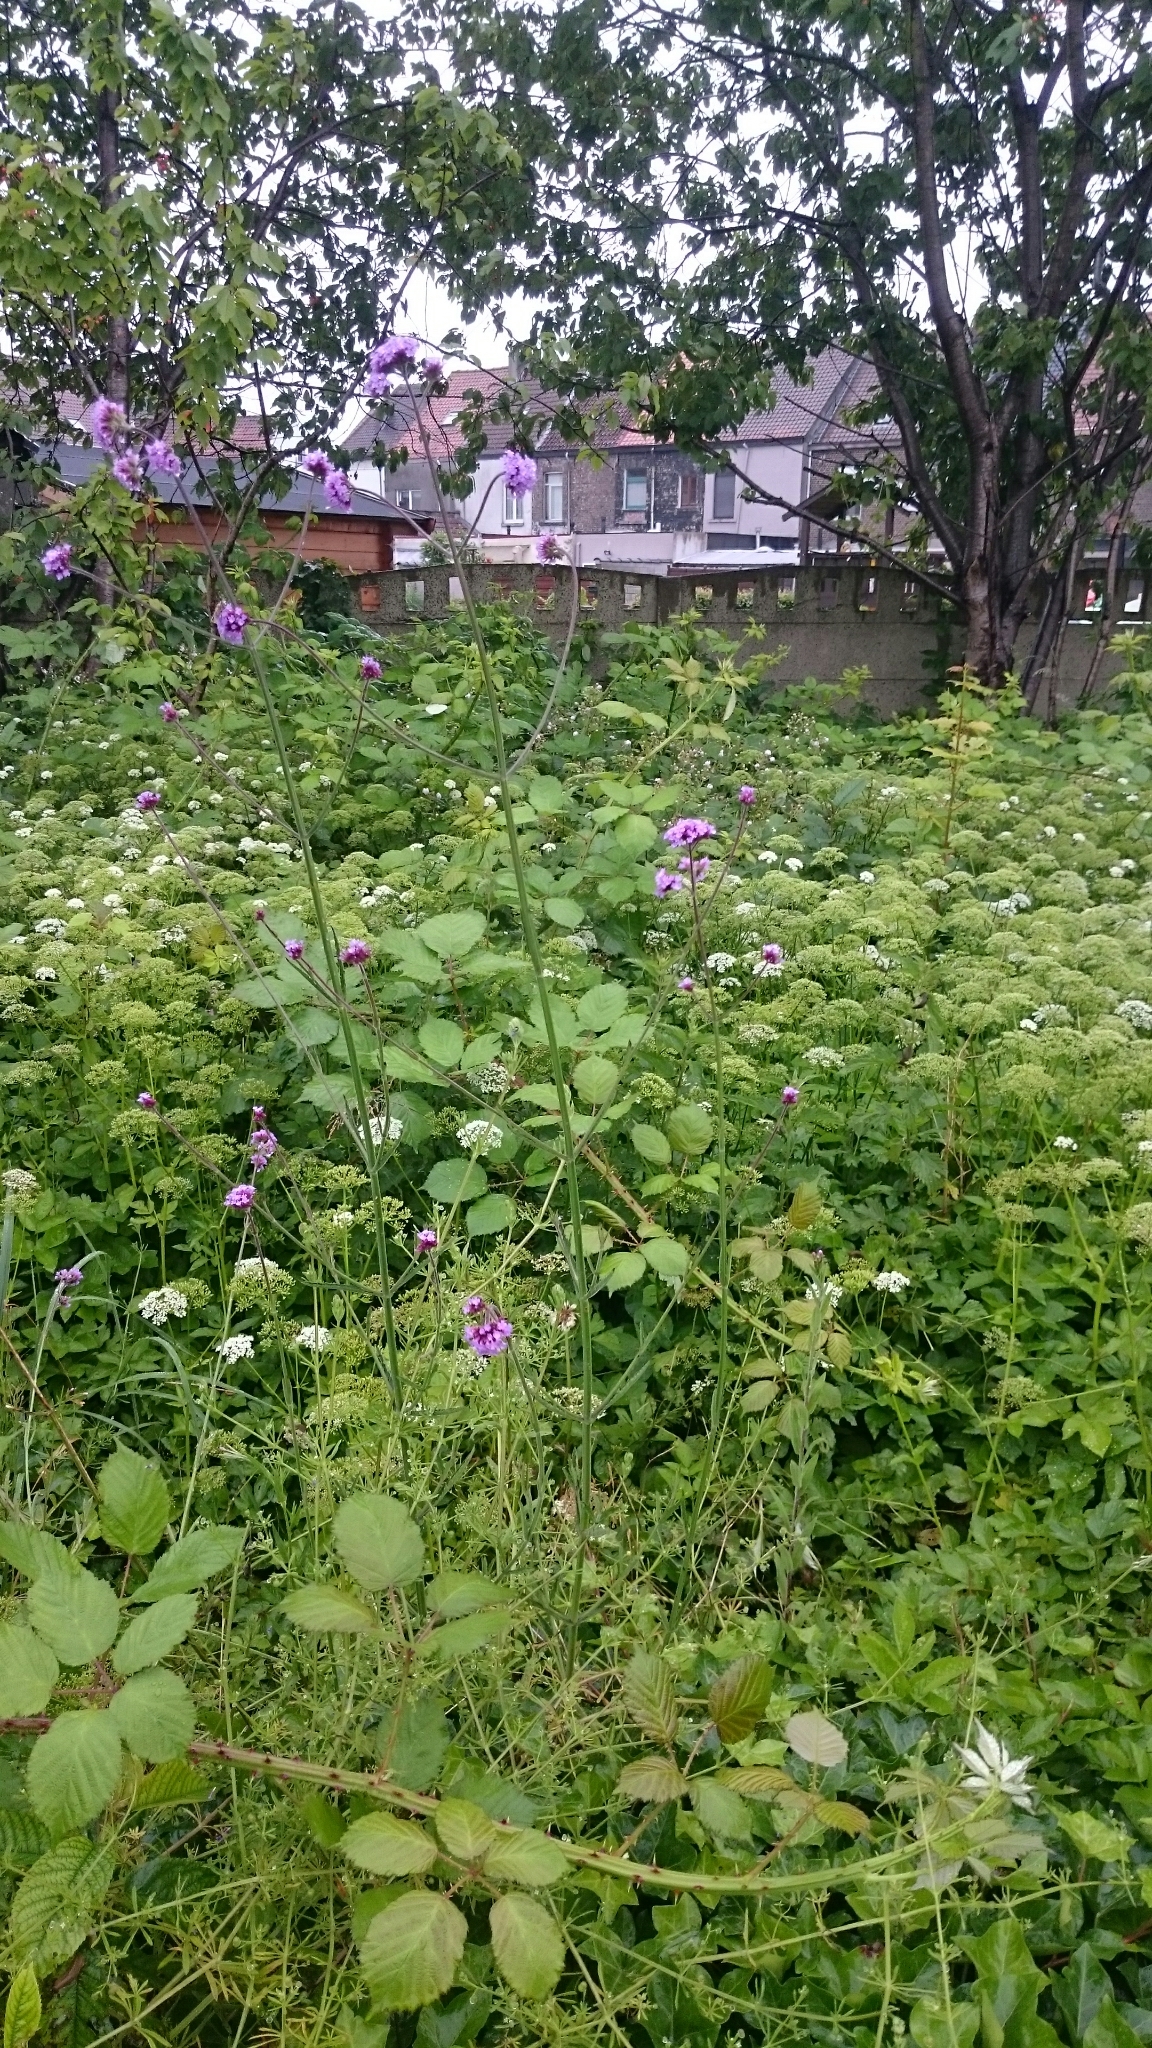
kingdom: Plantae
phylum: Tracheophyta
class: Magnoliopsida
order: Lamiales
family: Verbenaceae
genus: Verbena
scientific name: Verbena bonariensis
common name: Purpletop vervain
